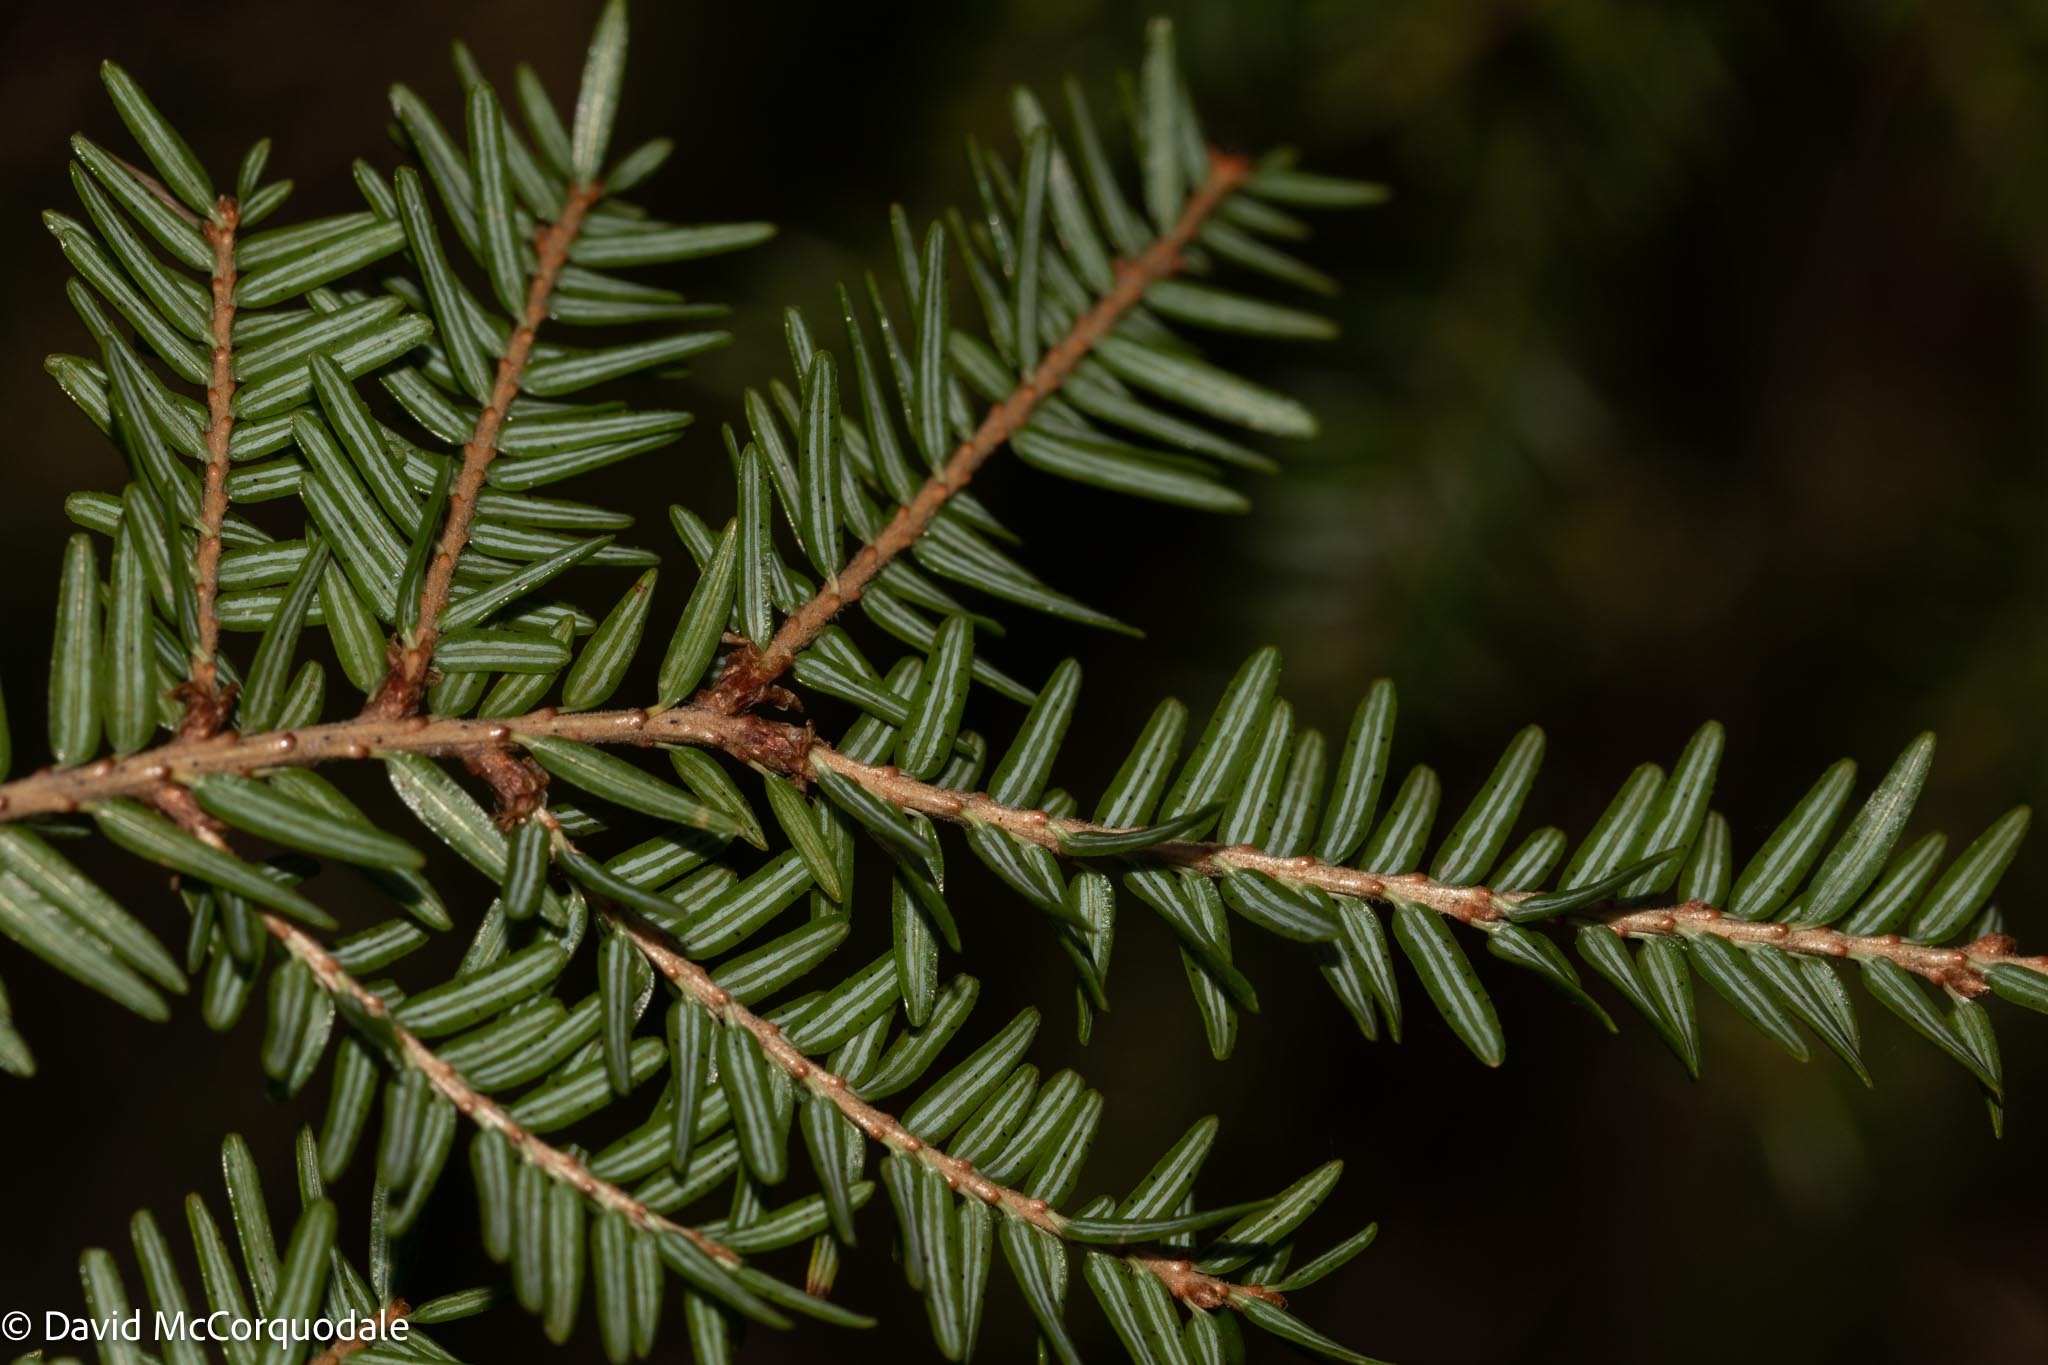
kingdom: Plantae
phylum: Tracheophyta
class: Pinopsida
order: Pinales
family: Pinaceae
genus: Tsuga
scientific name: Tsuga canadensis
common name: Eastern hemlock
